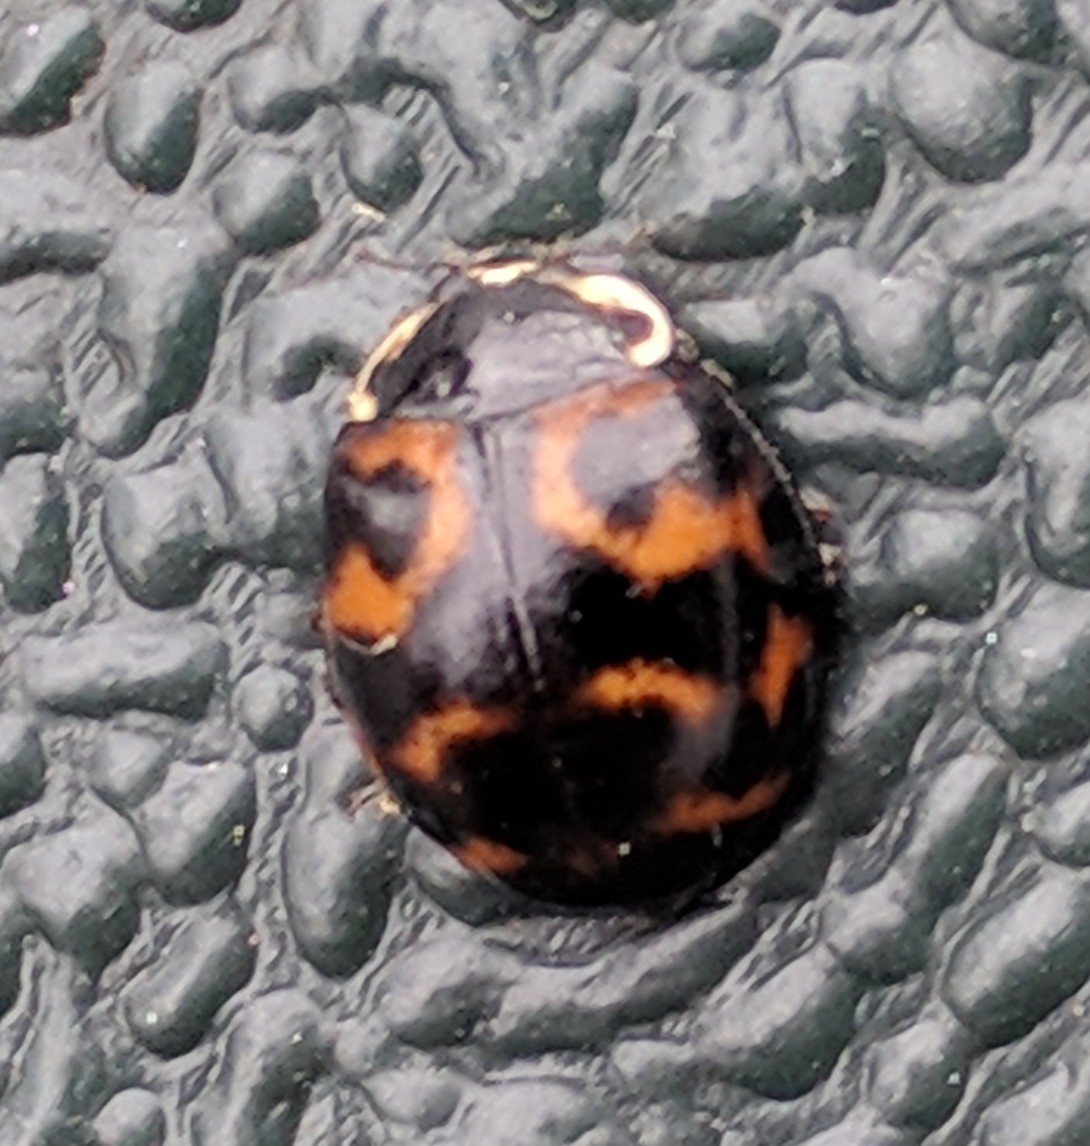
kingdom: Animalia
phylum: Arthropoda
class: Insecta
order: Coleoptera
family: Coccinellidae
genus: Harmonia
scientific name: Harmonia axyridis
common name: Harlequin ladybird
